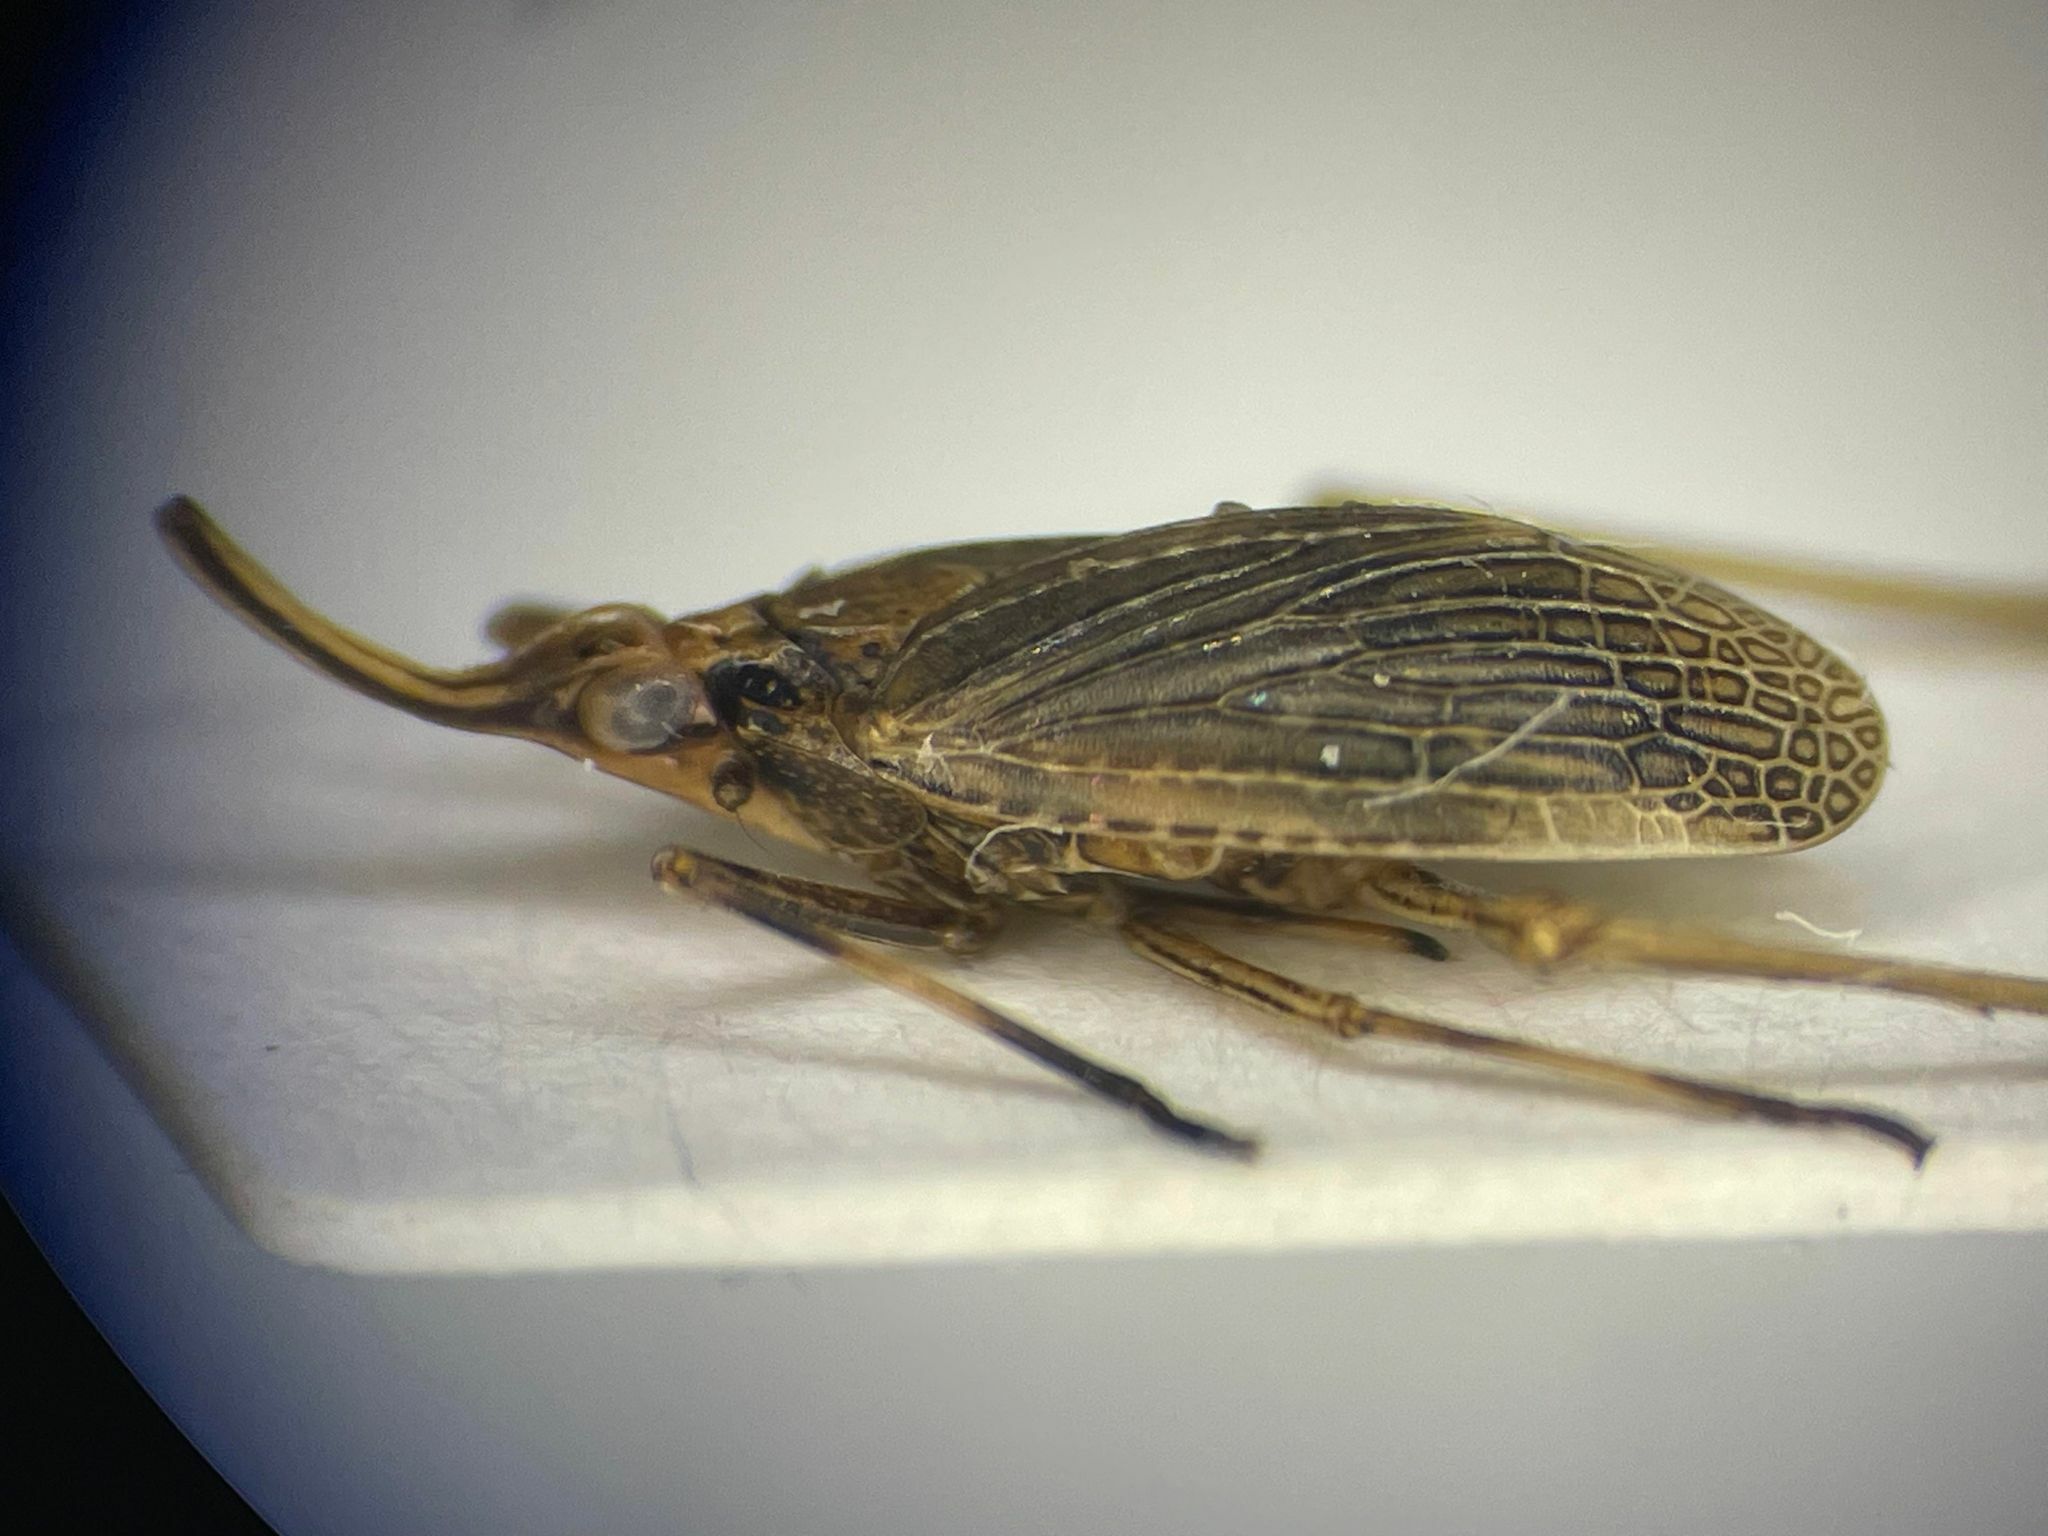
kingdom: Animalia
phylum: Arthropoda
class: Insecta
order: Hemiptera
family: Dictyopharidae
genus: Scolops
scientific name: Scolops sulcipes
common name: Partridge planthopper
